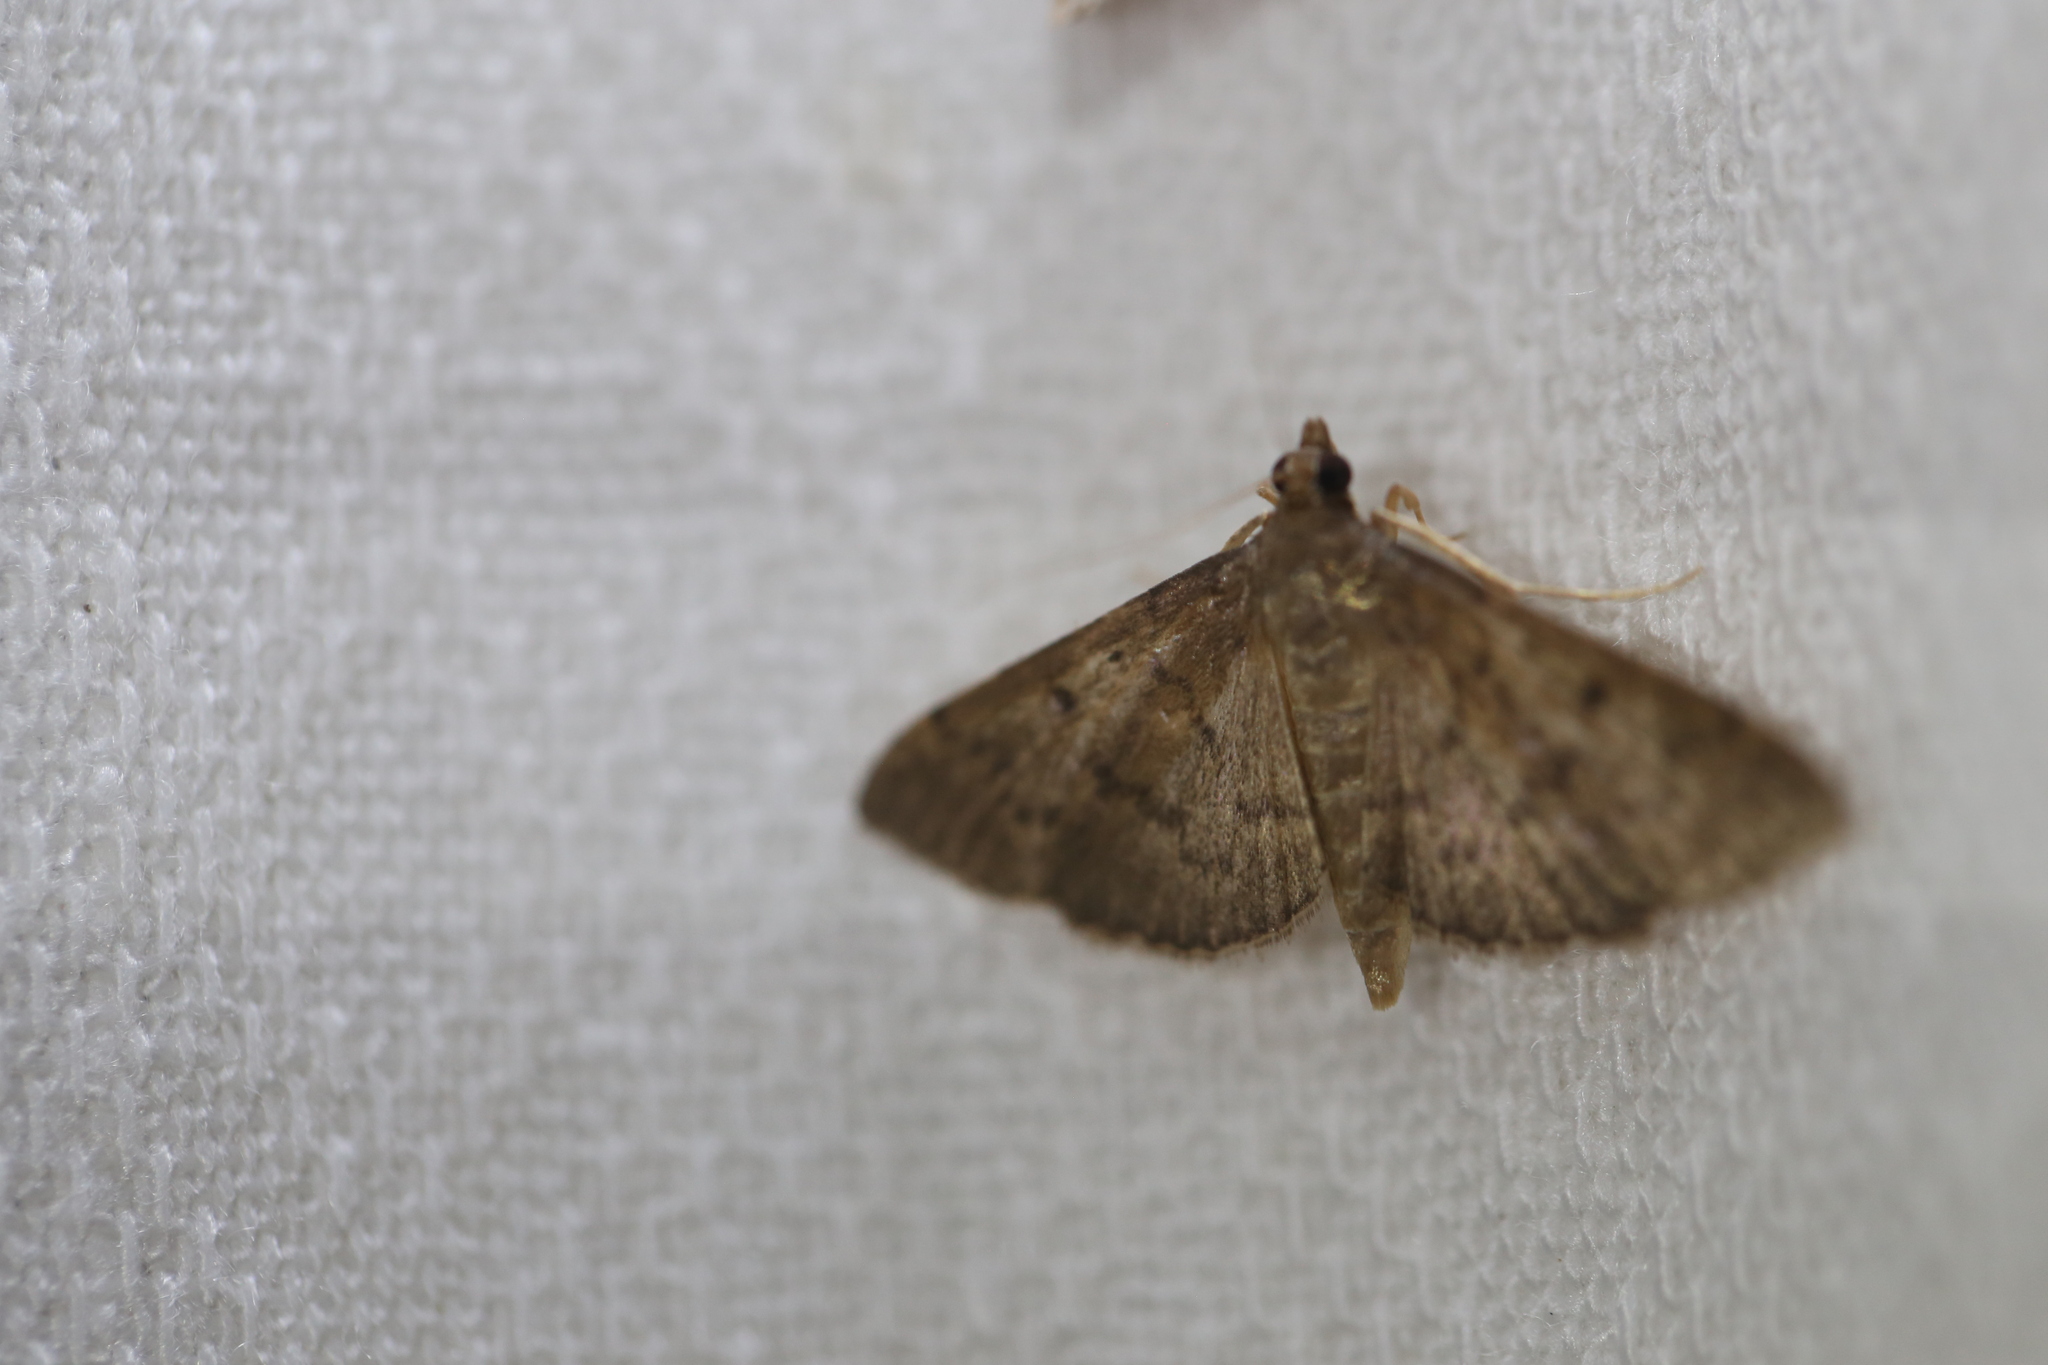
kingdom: Animalia
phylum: Arthropoda
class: Insecta
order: Lepidoptera
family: Crambidae
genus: Herpetogramma
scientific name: Herpetogramma licarsisalis
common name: Grass webworm
